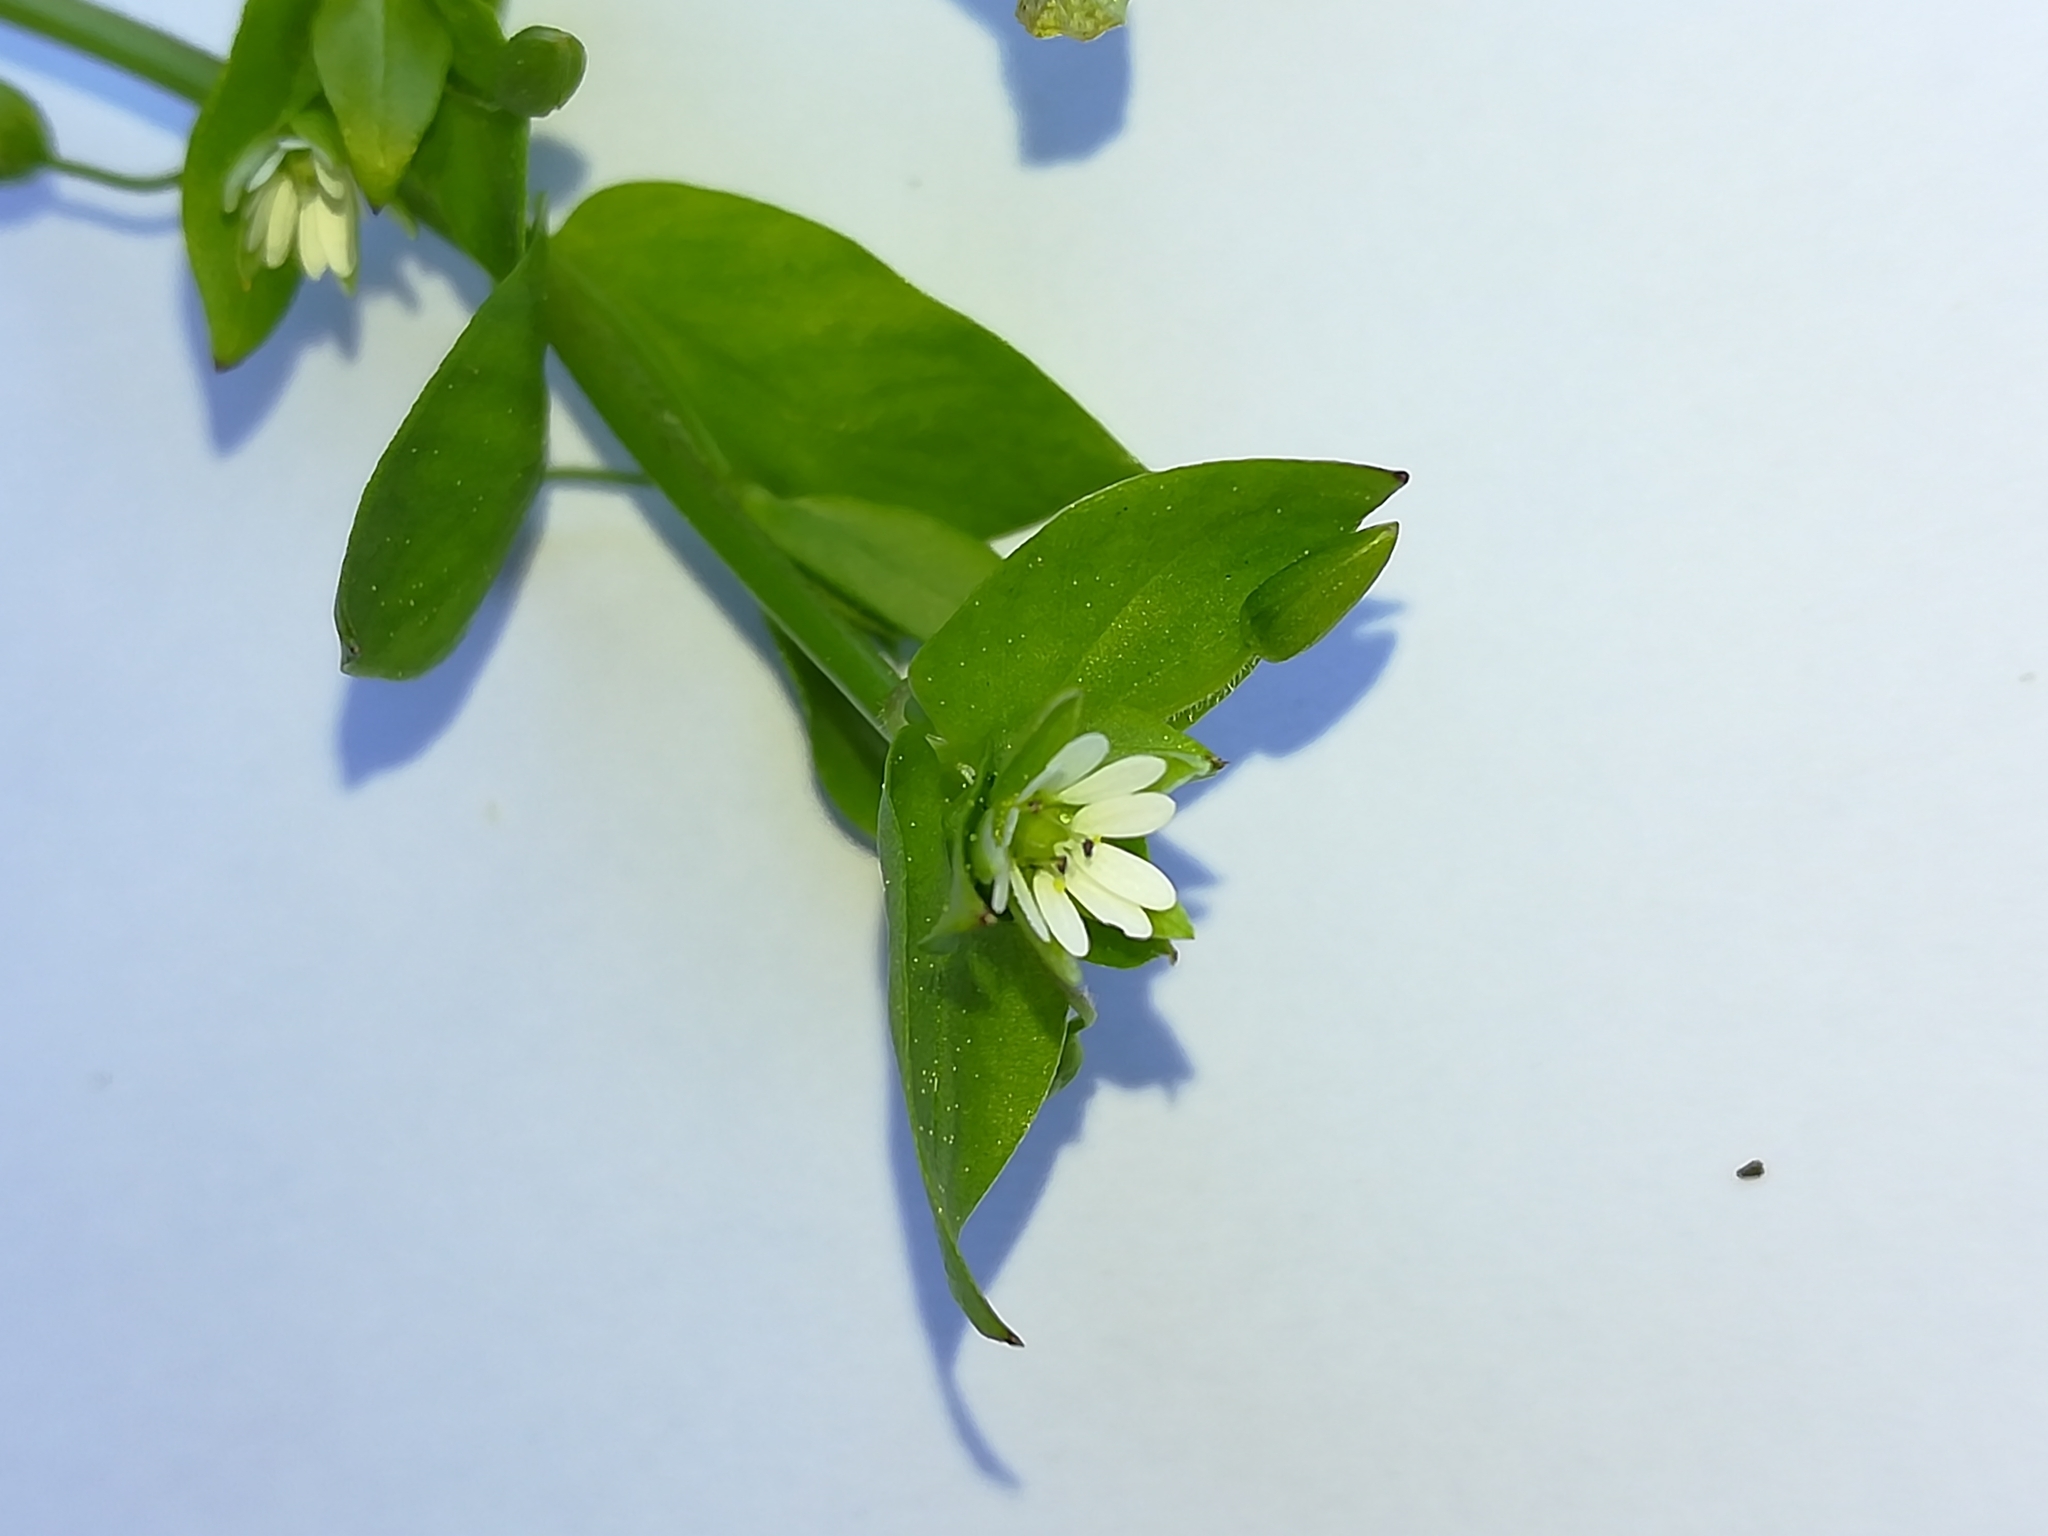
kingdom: Plantae
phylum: Tracheophyta
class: Magnoliopsida
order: Caryophyllales
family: Caryophyllaceae
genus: Stellaria
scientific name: Stellaria media
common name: Common chickweed
